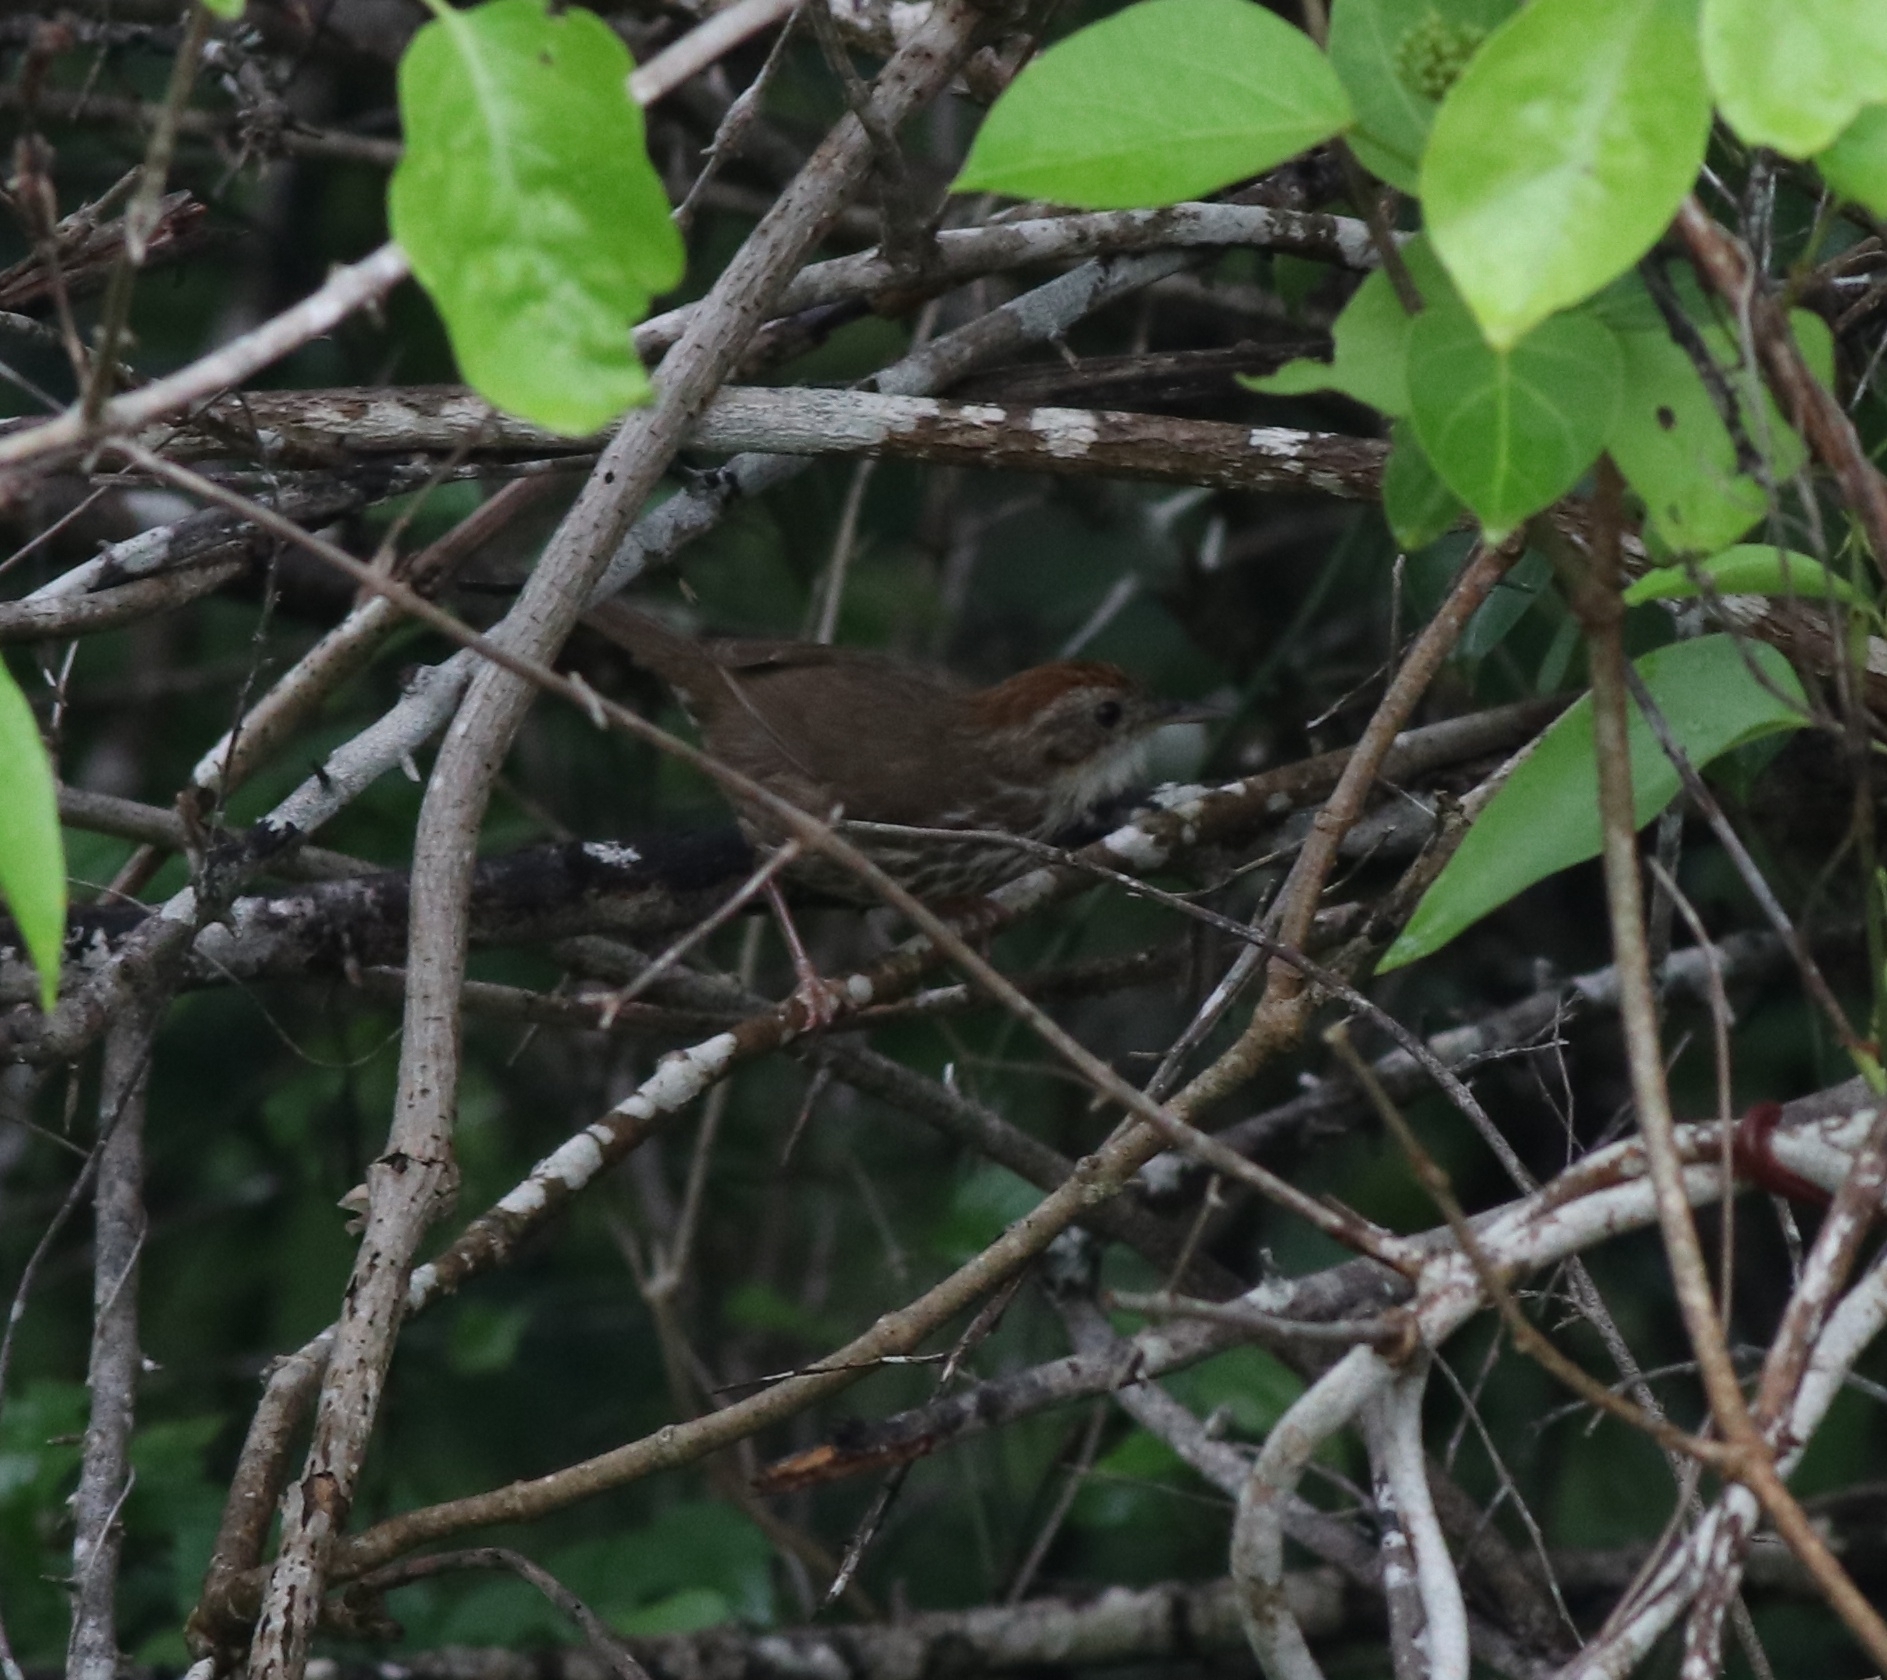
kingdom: Animalia
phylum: Chordata
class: Aves
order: Passeriformes
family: Pellorneidae
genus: Pellorneum
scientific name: Pellorneum ruficeps
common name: Puff-throated babbler
